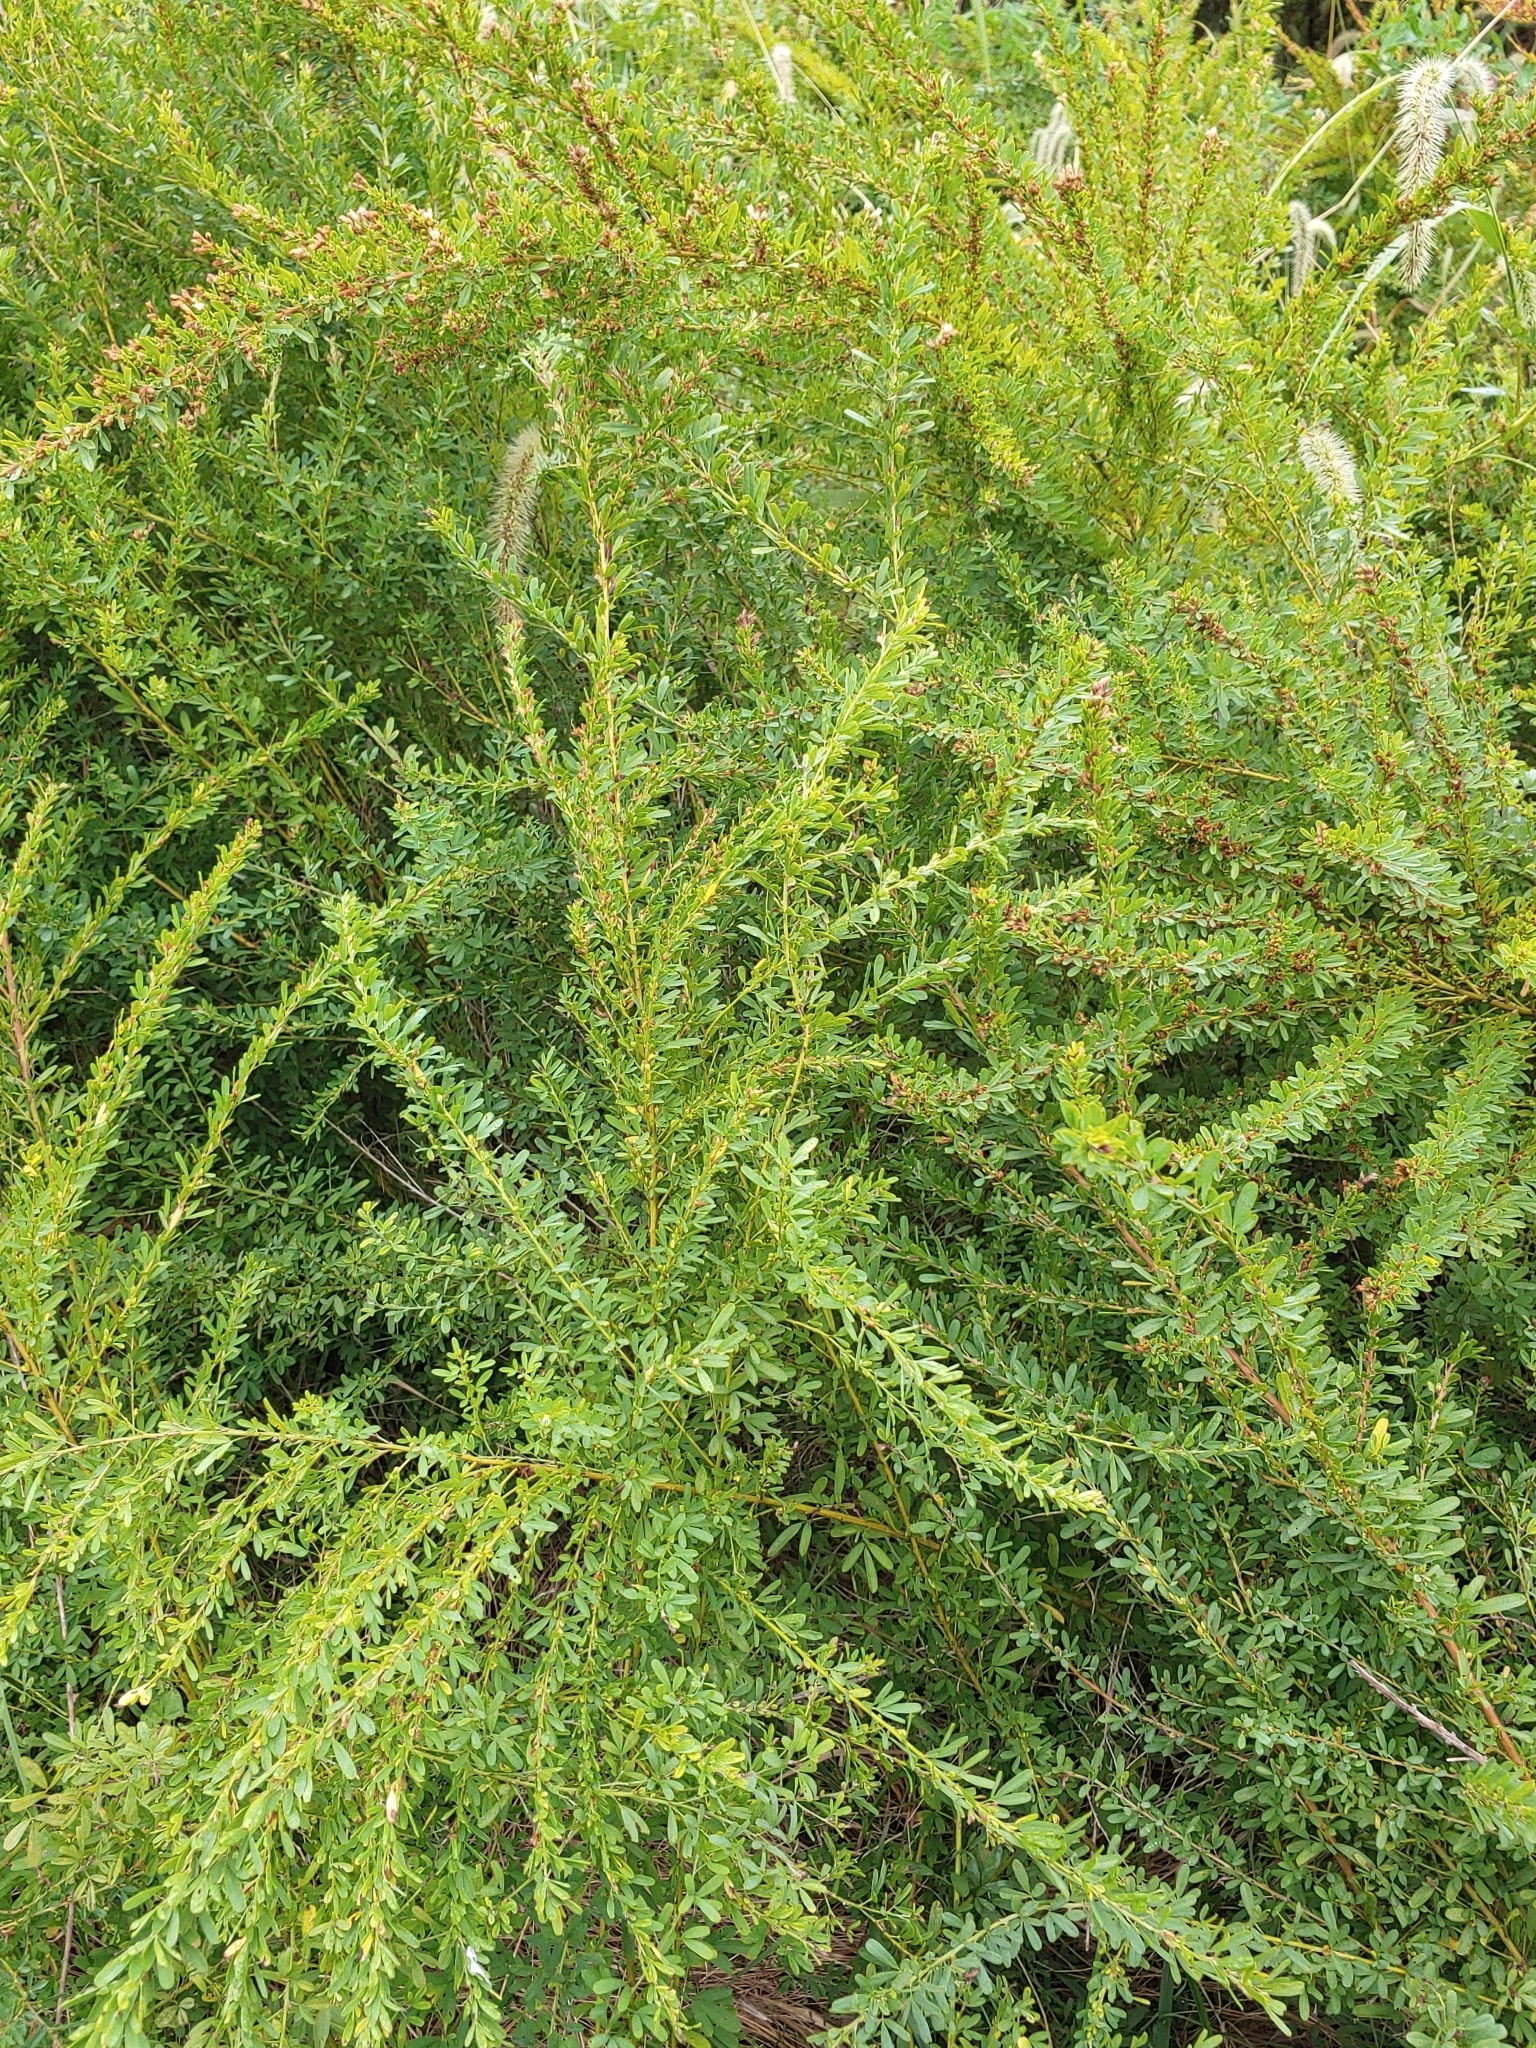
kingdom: Plantae
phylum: Tracheophyta
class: Magnoliopsida
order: Fabales
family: Fabaceae
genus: Lespedeza
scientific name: Lespedeza cuneata
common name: Chinese bush-clover
